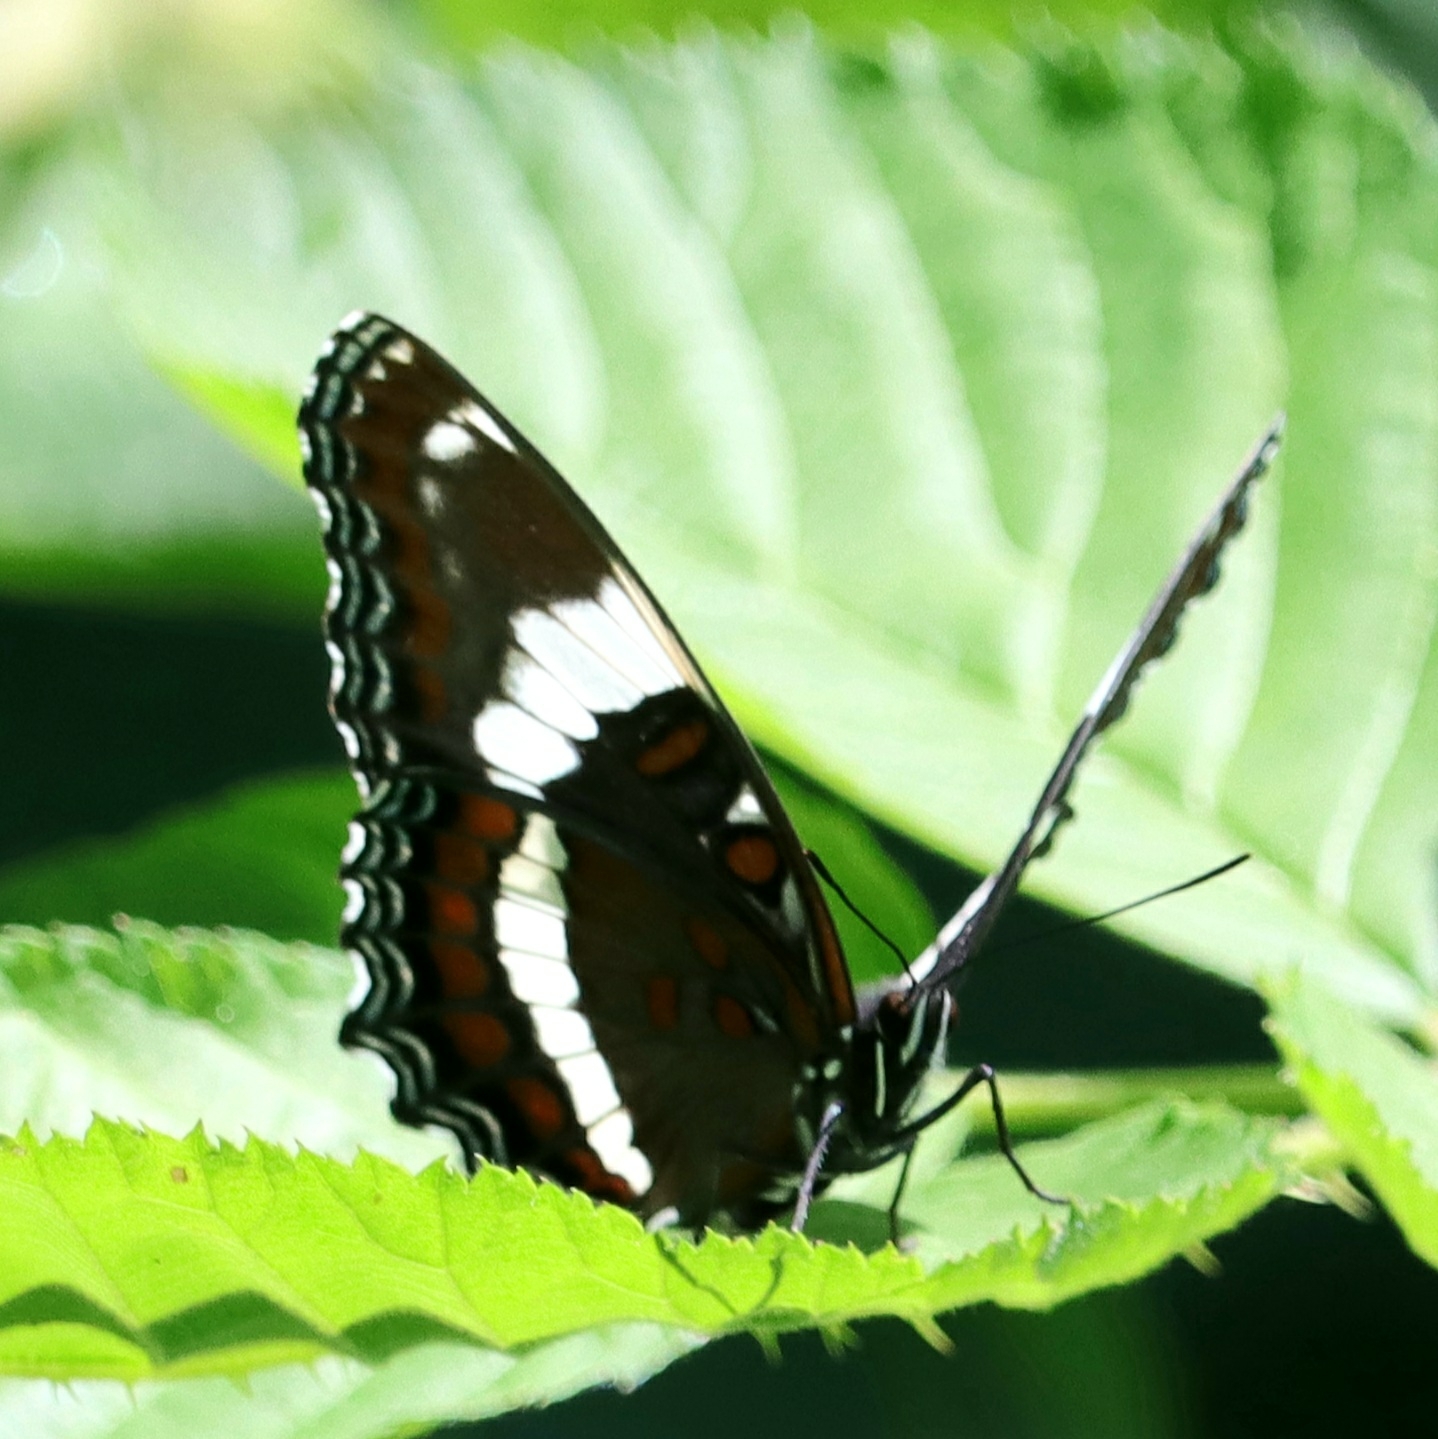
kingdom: Animalia
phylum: Arthropoda
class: Insecta
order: Lepidoptera
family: Nymphalidae
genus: Limenitis
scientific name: Limenitis arthemis
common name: Red-spotted admiral
